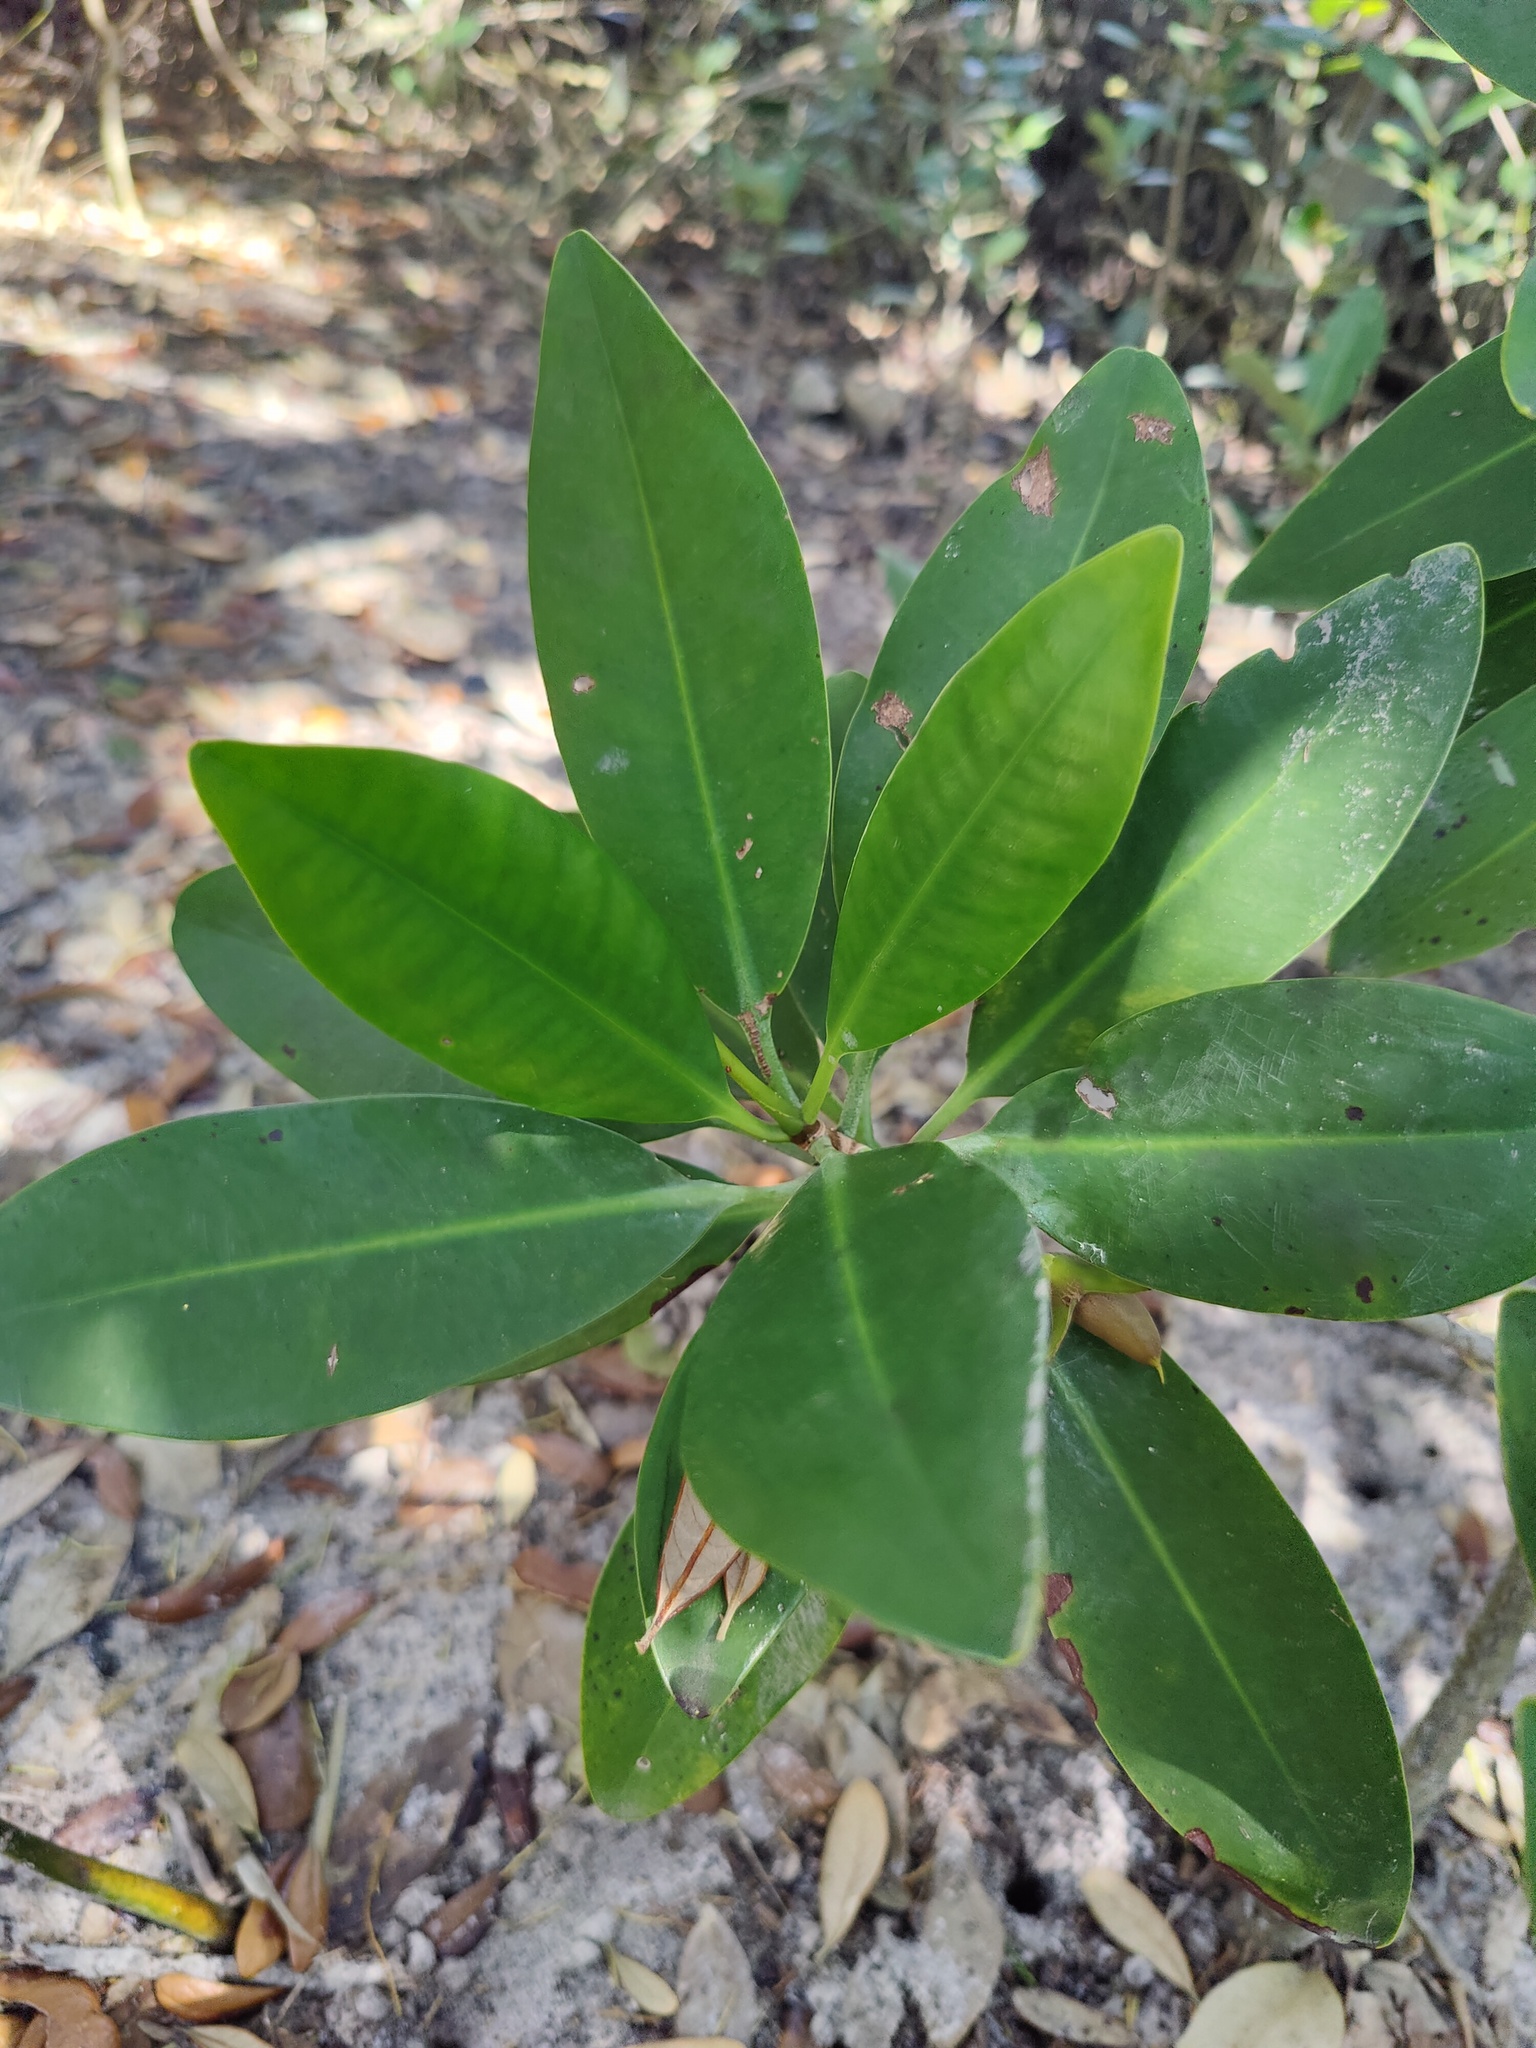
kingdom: Plantae
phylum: Tracheophyta
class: Magnoliopsida
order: Malpighiales
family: Rhizophoraceae
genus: Rhizophora
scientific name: Rhizophora mangle
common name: Red mangrove
